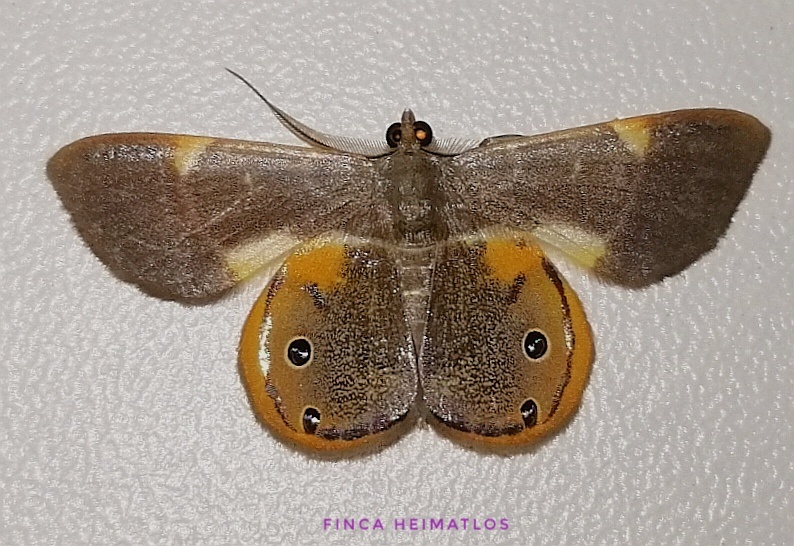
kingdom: Animalia
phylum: Arthropoda
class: Insecta
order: Lepidoptera
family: Geometridae
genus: Opisthoxia
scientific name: Opisthoxia haemon
